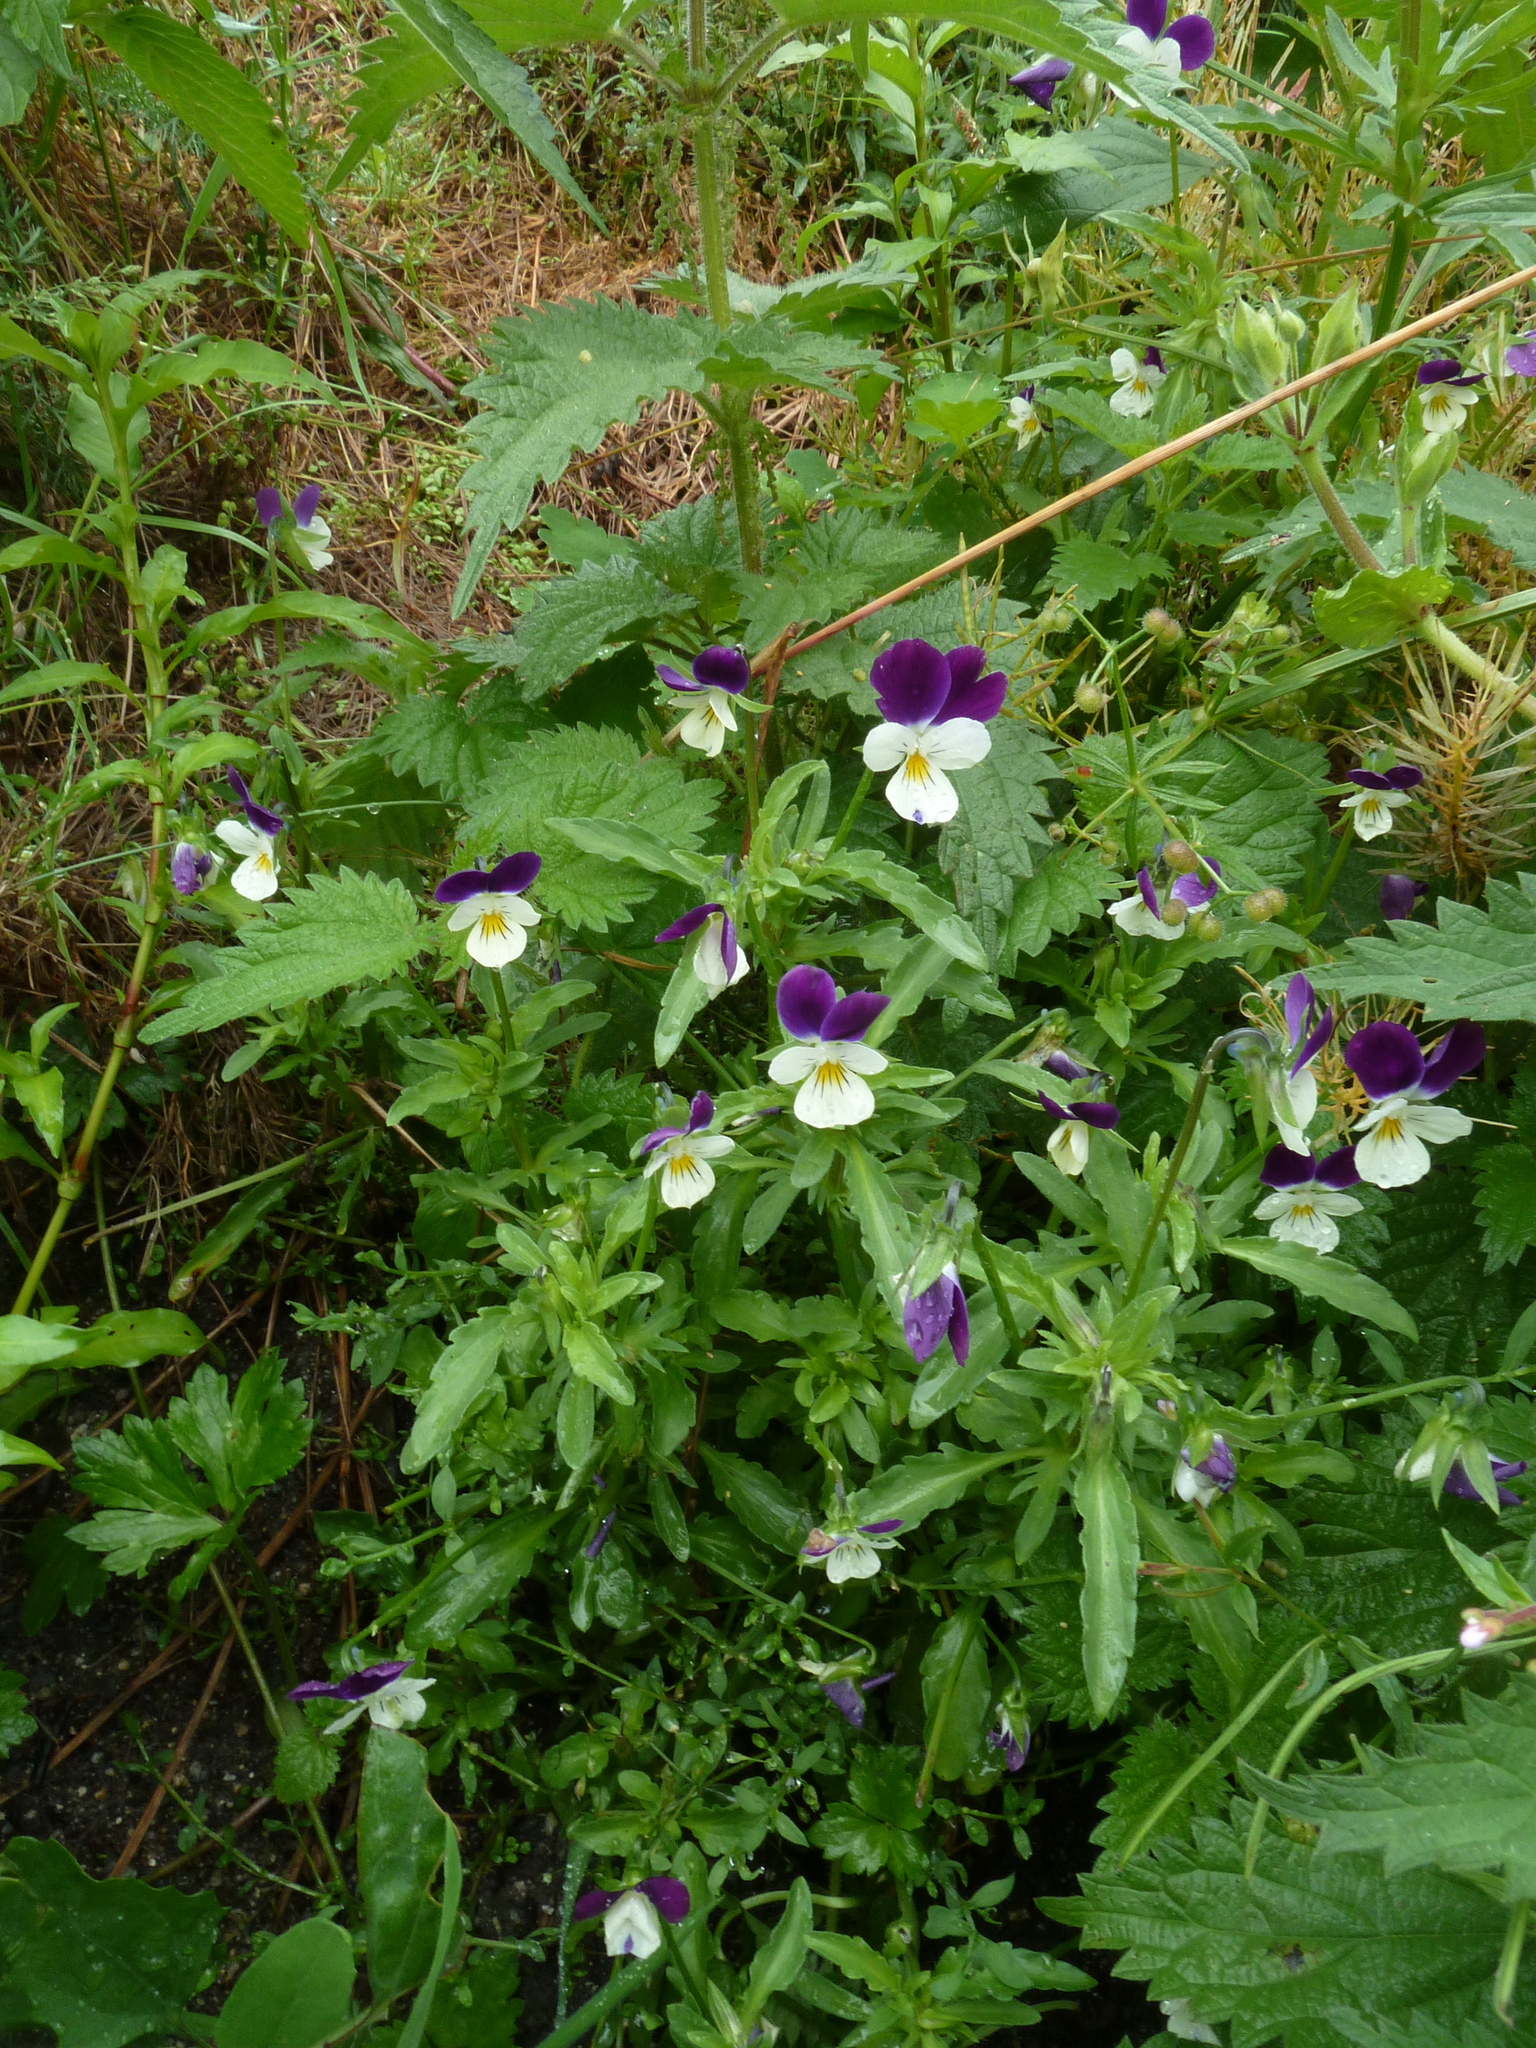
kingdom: Plantae
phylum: Tracheophyta
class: Magnoliopsida
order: Malpighiales
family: Violaceae
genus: Viola
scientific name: Viola tricolor
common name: Pansy
